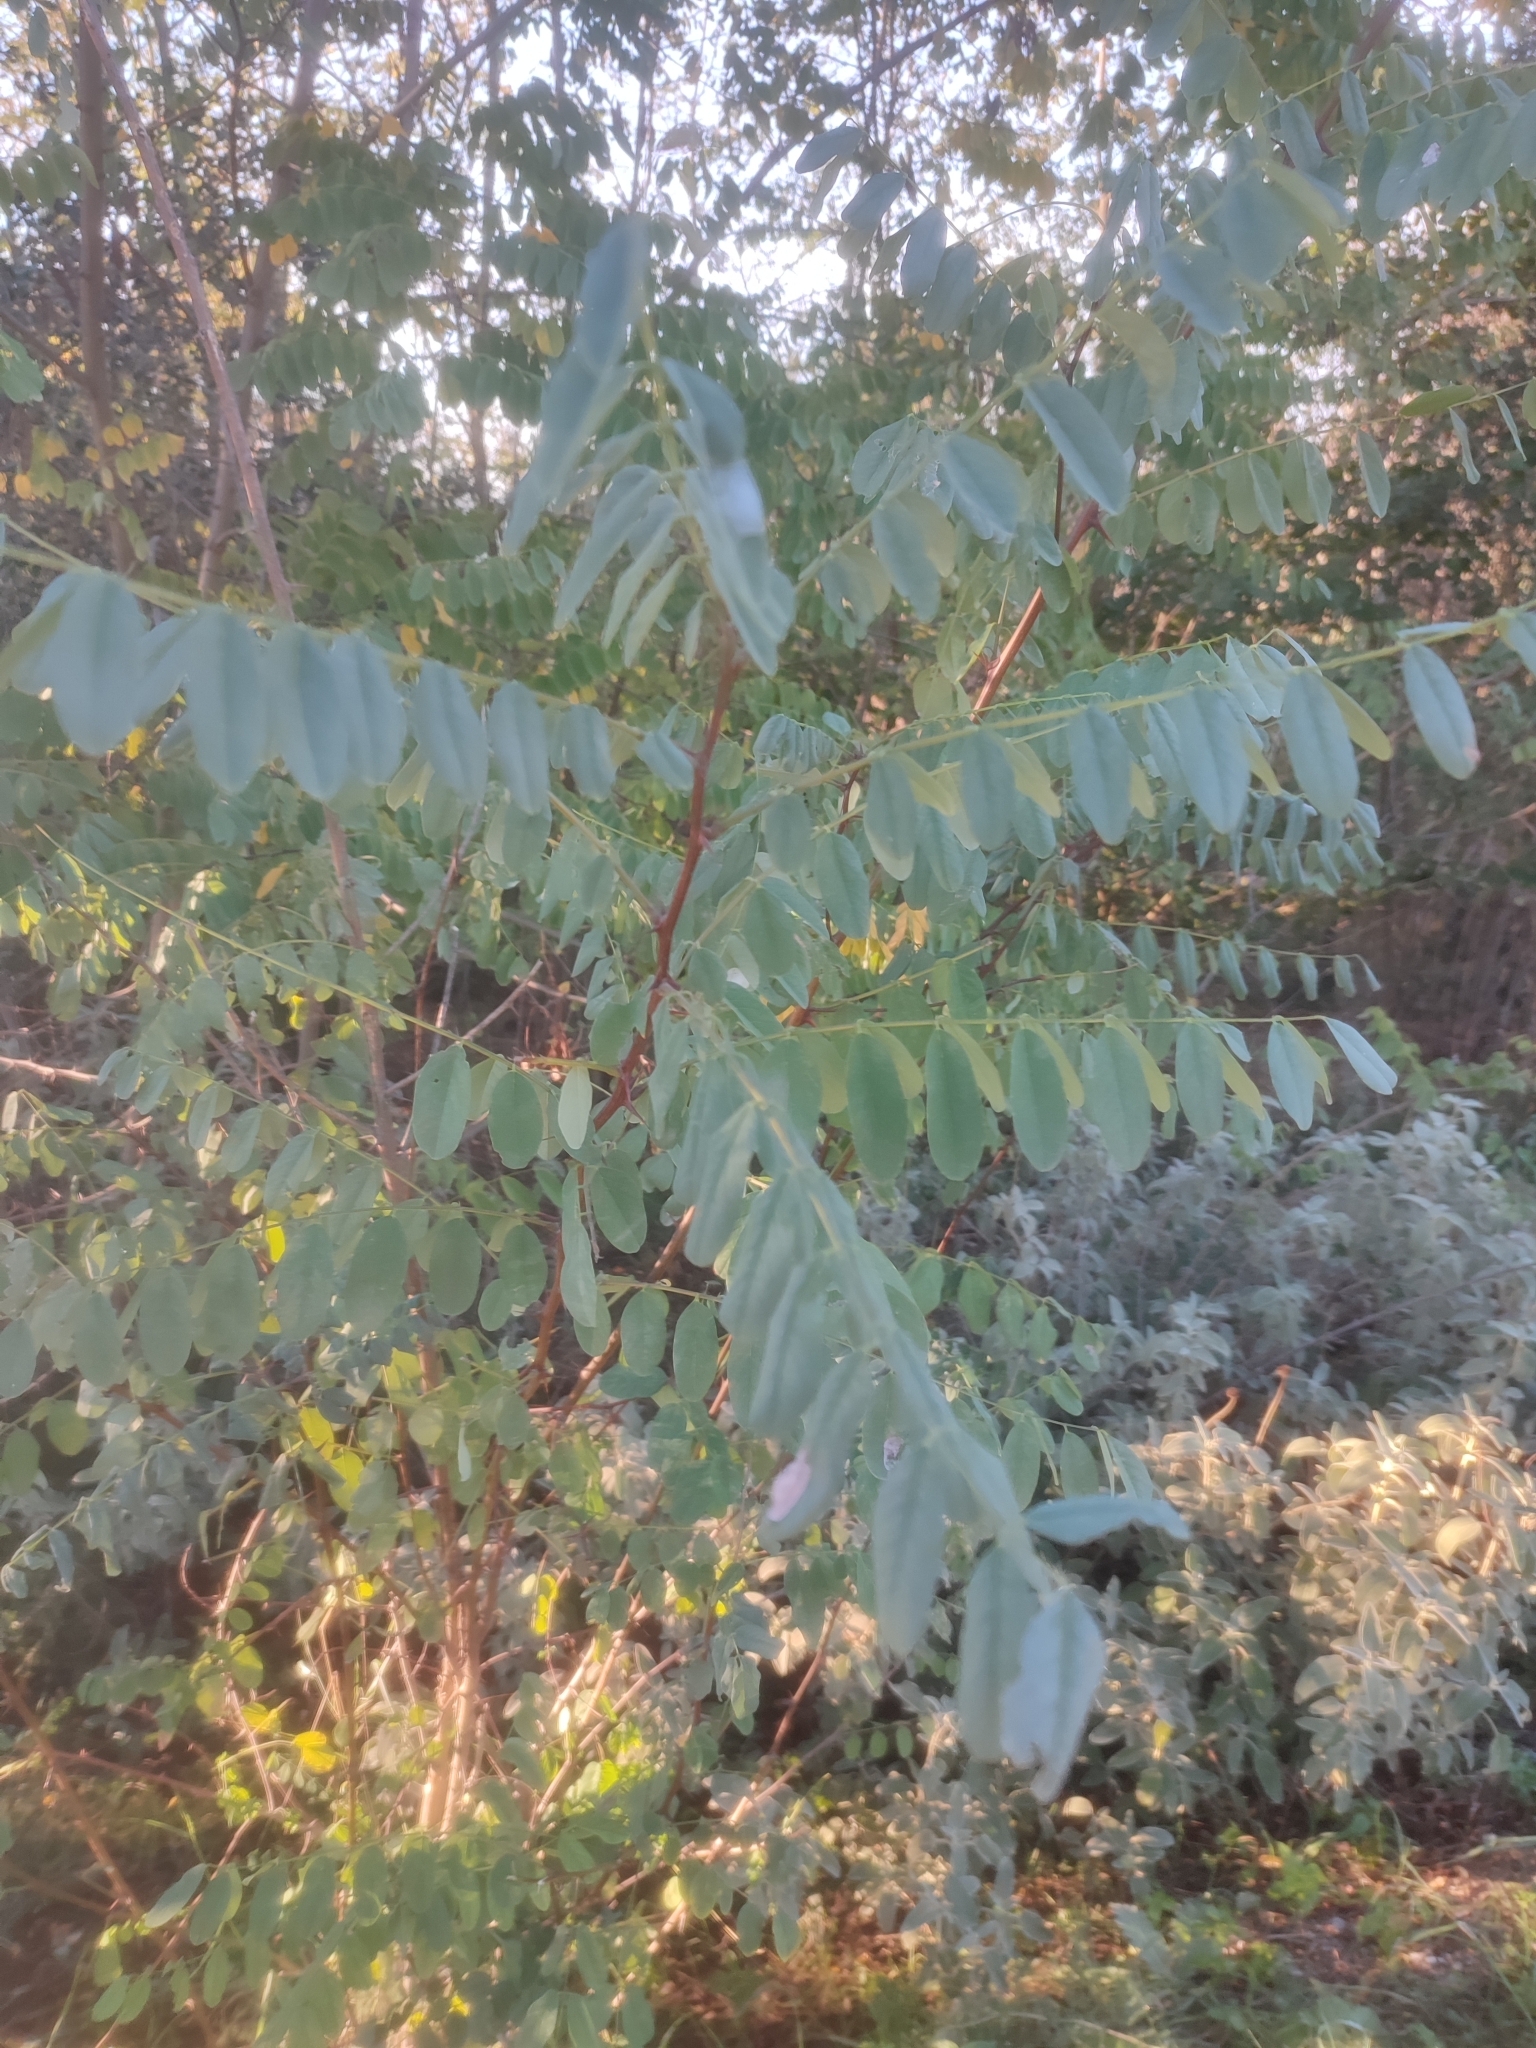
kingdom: Plantae
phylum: Tracheophyta
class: Magnoliopsida
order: Fabales
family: Fabaceae
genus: Robinia
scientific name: Robinia pseudoacacia
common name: Black locust
